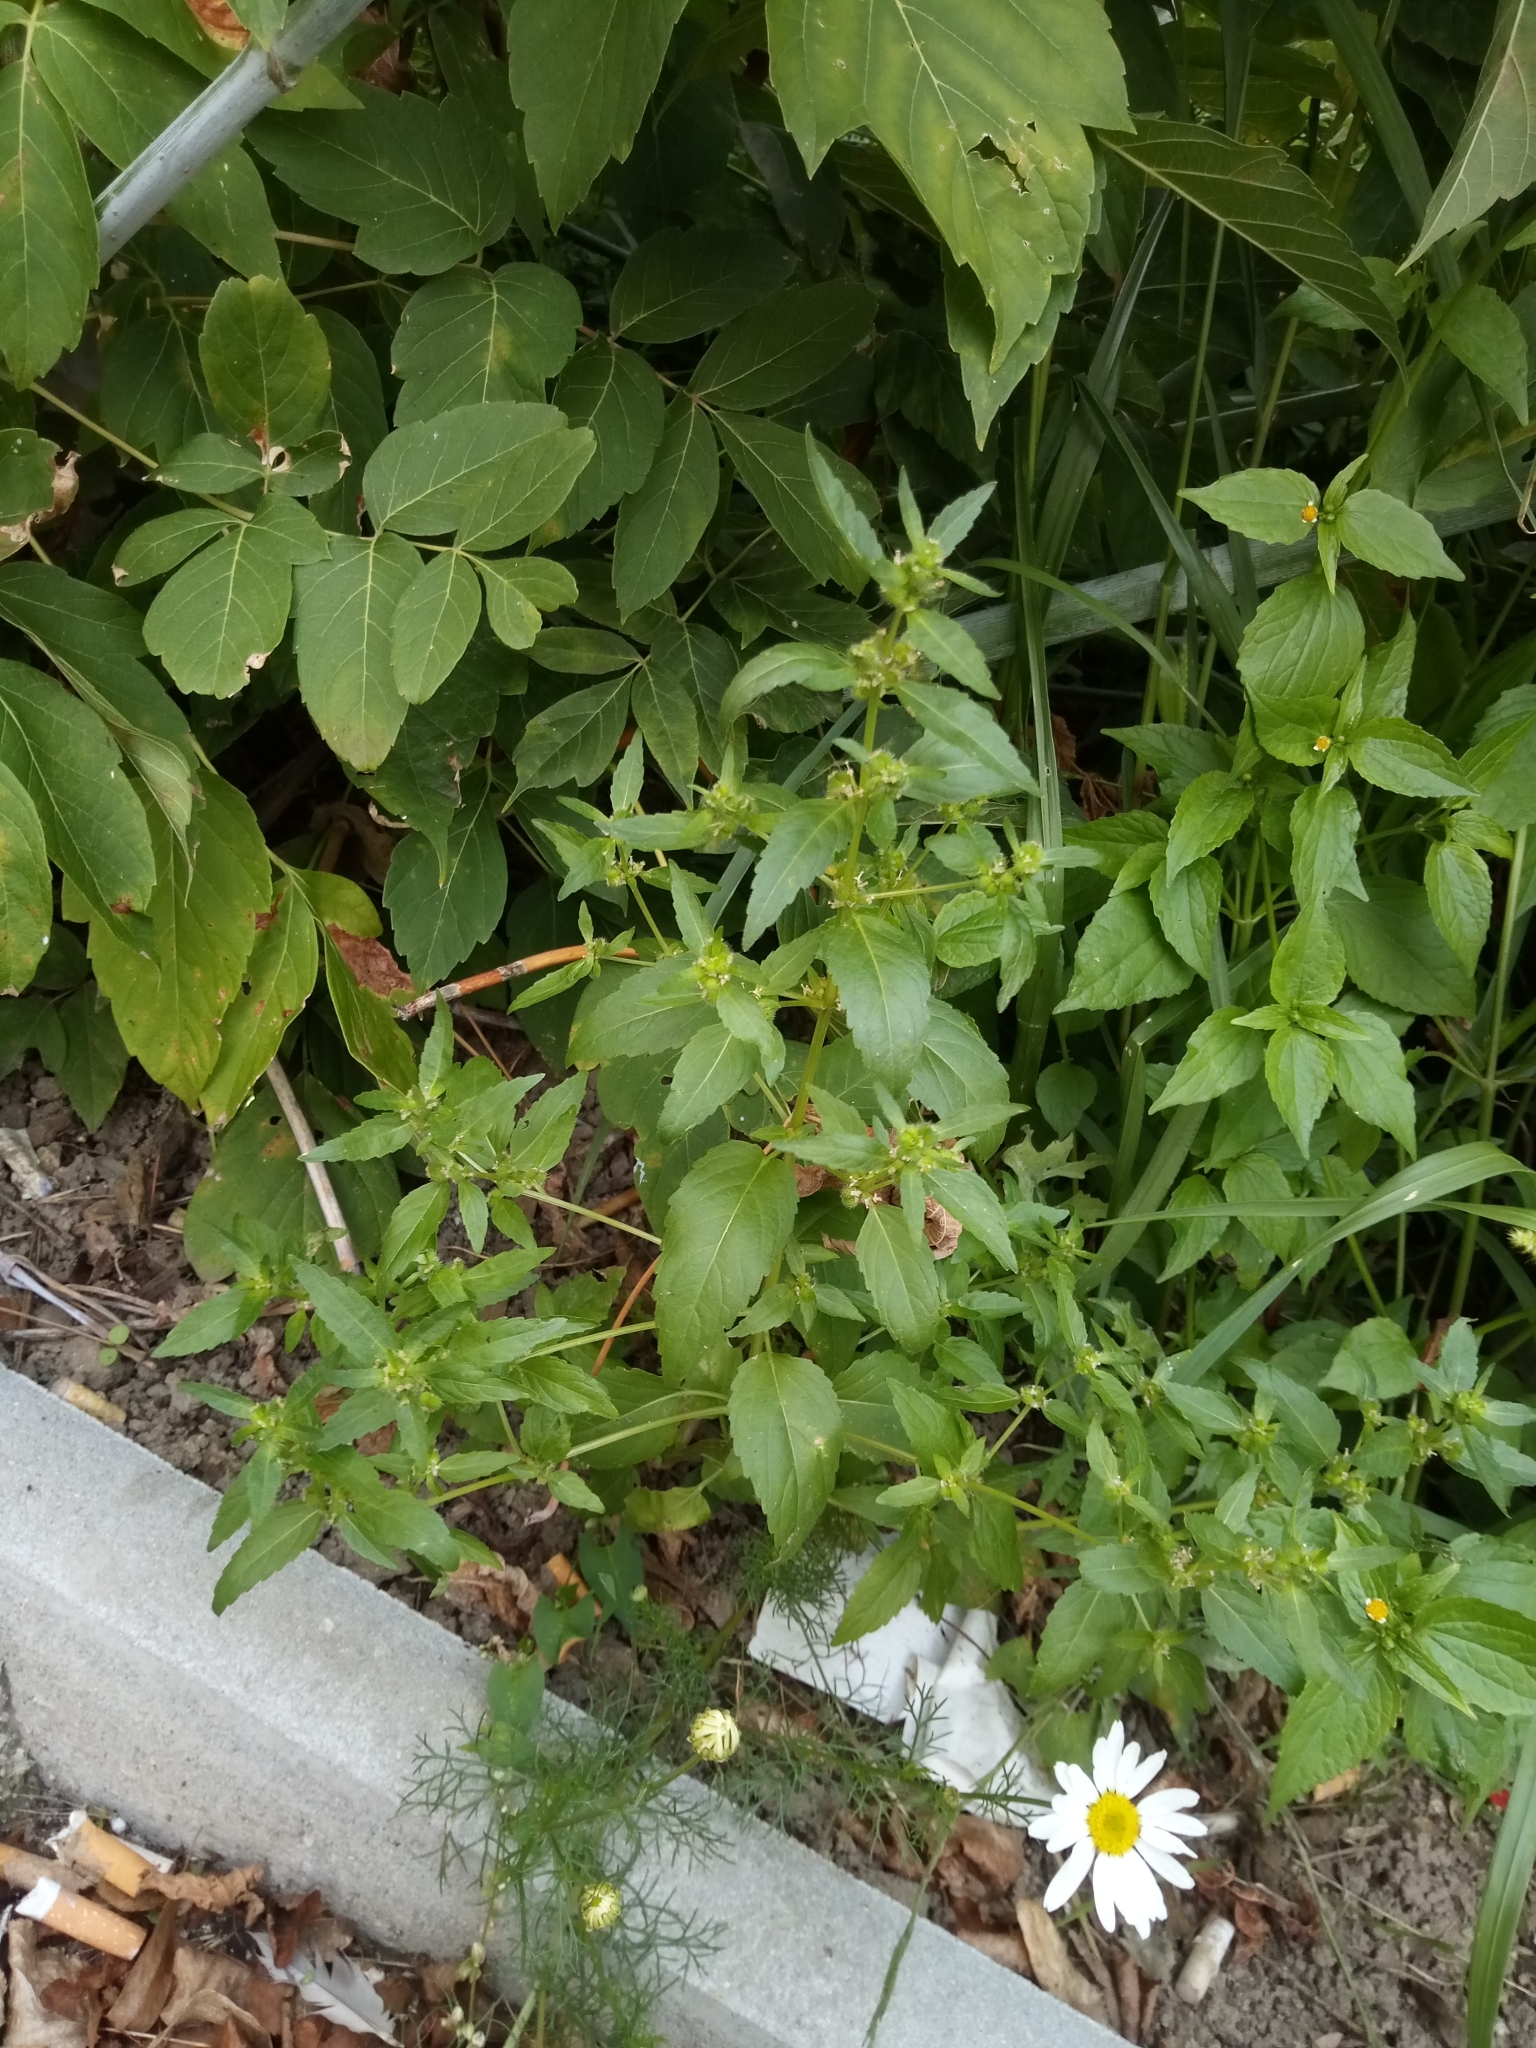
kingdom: Plantae
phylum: Tracheophyta
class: Magnoliopsida
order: Malpighiales
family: Euphorbiaceae
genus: Mercurialis
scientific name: Mercurialis annua
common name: Annual mercury
